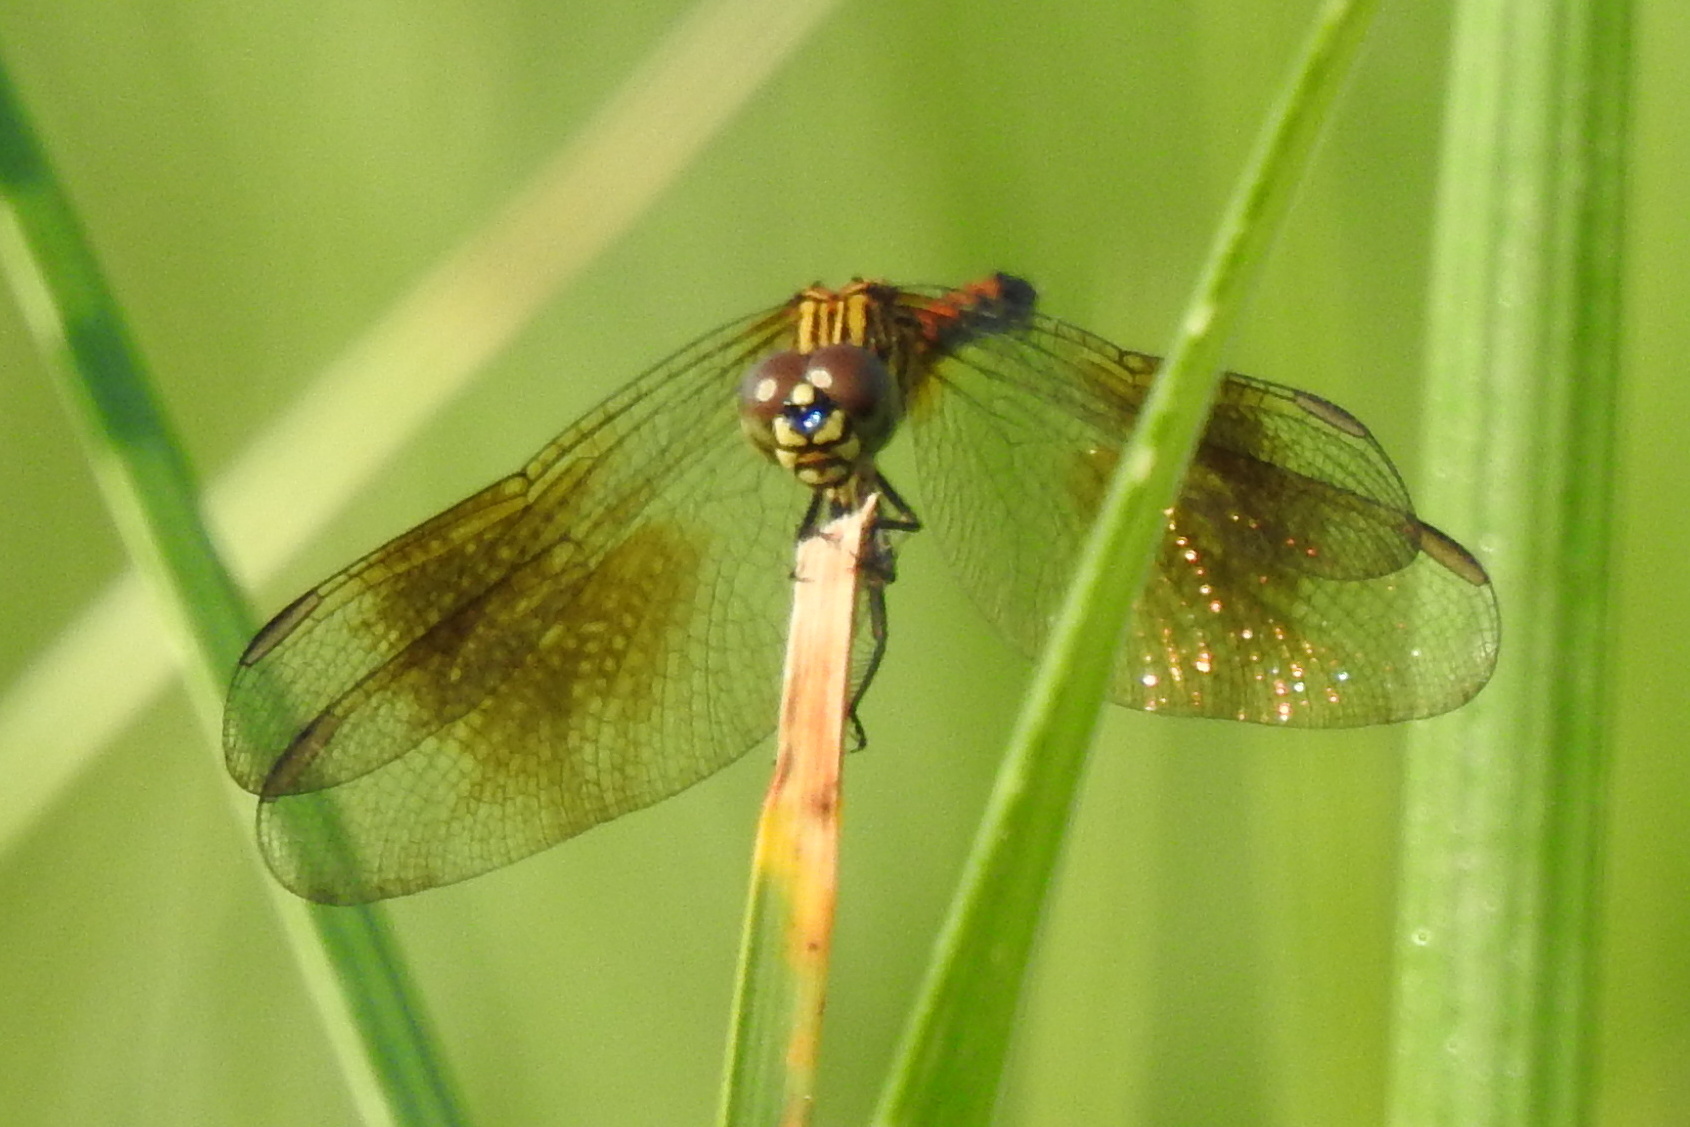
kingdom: Animalia
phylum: Arthropoda
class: Insecta
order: Odonata
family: Libellulidae
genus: Erythrodiplax
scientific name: Erythrodiplax berenice
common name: Seaside dragonlet
